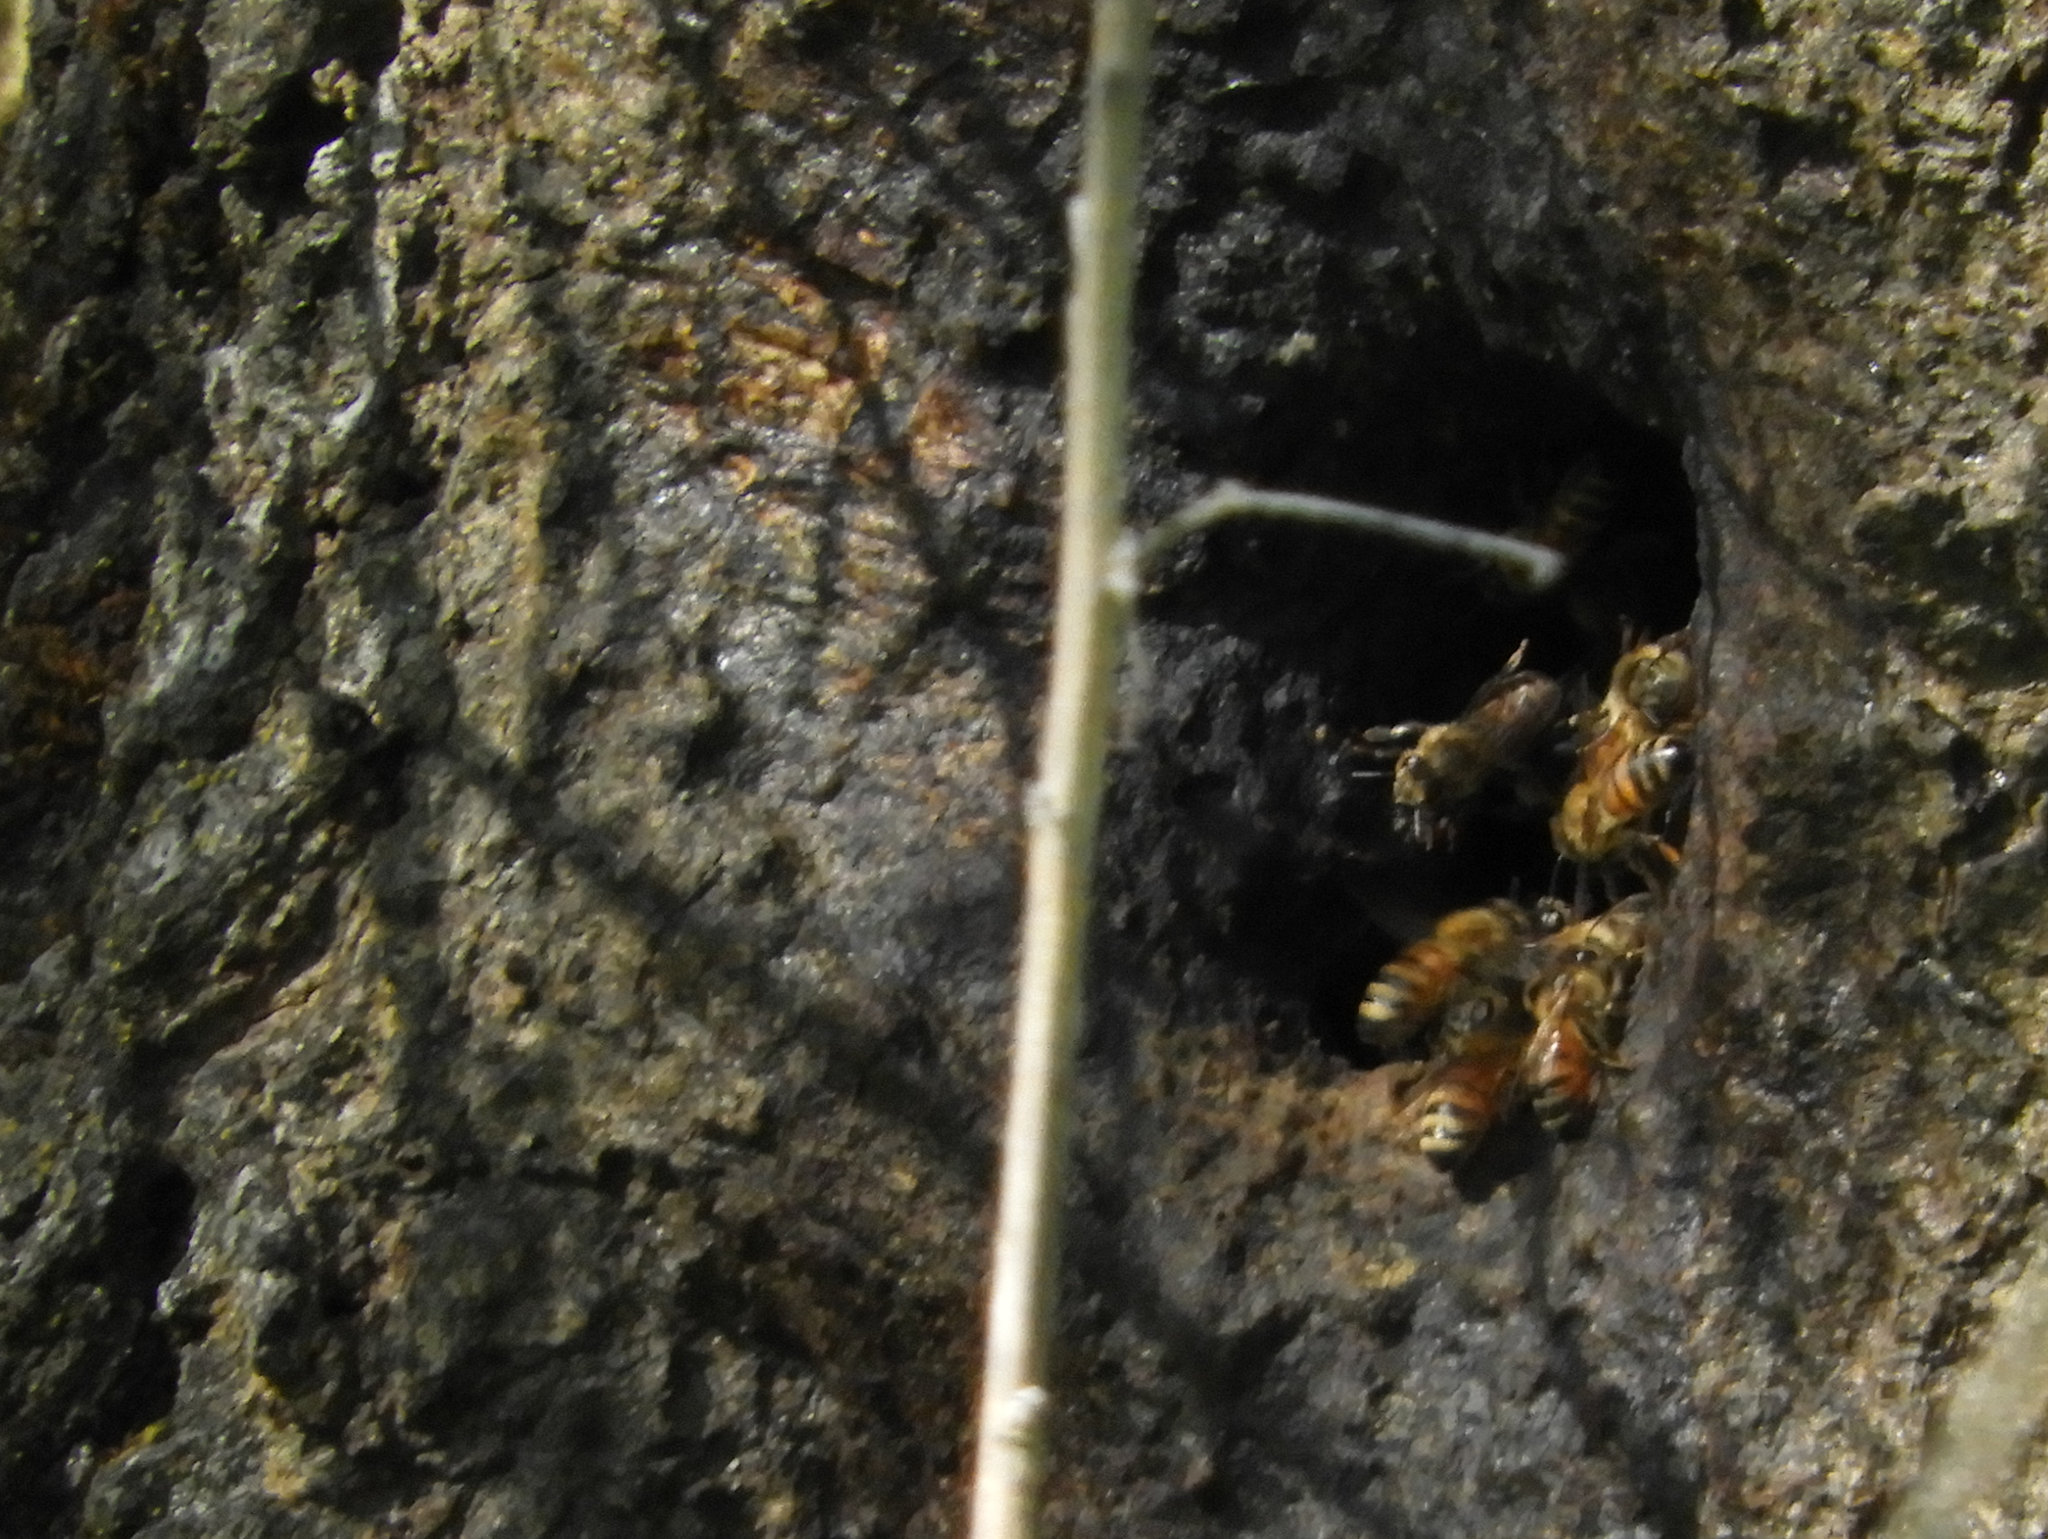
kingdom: Animalia
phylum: Arthropoda
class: Insecta
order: Hymenoptera
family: Apidae
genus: Apis
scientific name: Apis mellifera
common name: Honey bee
